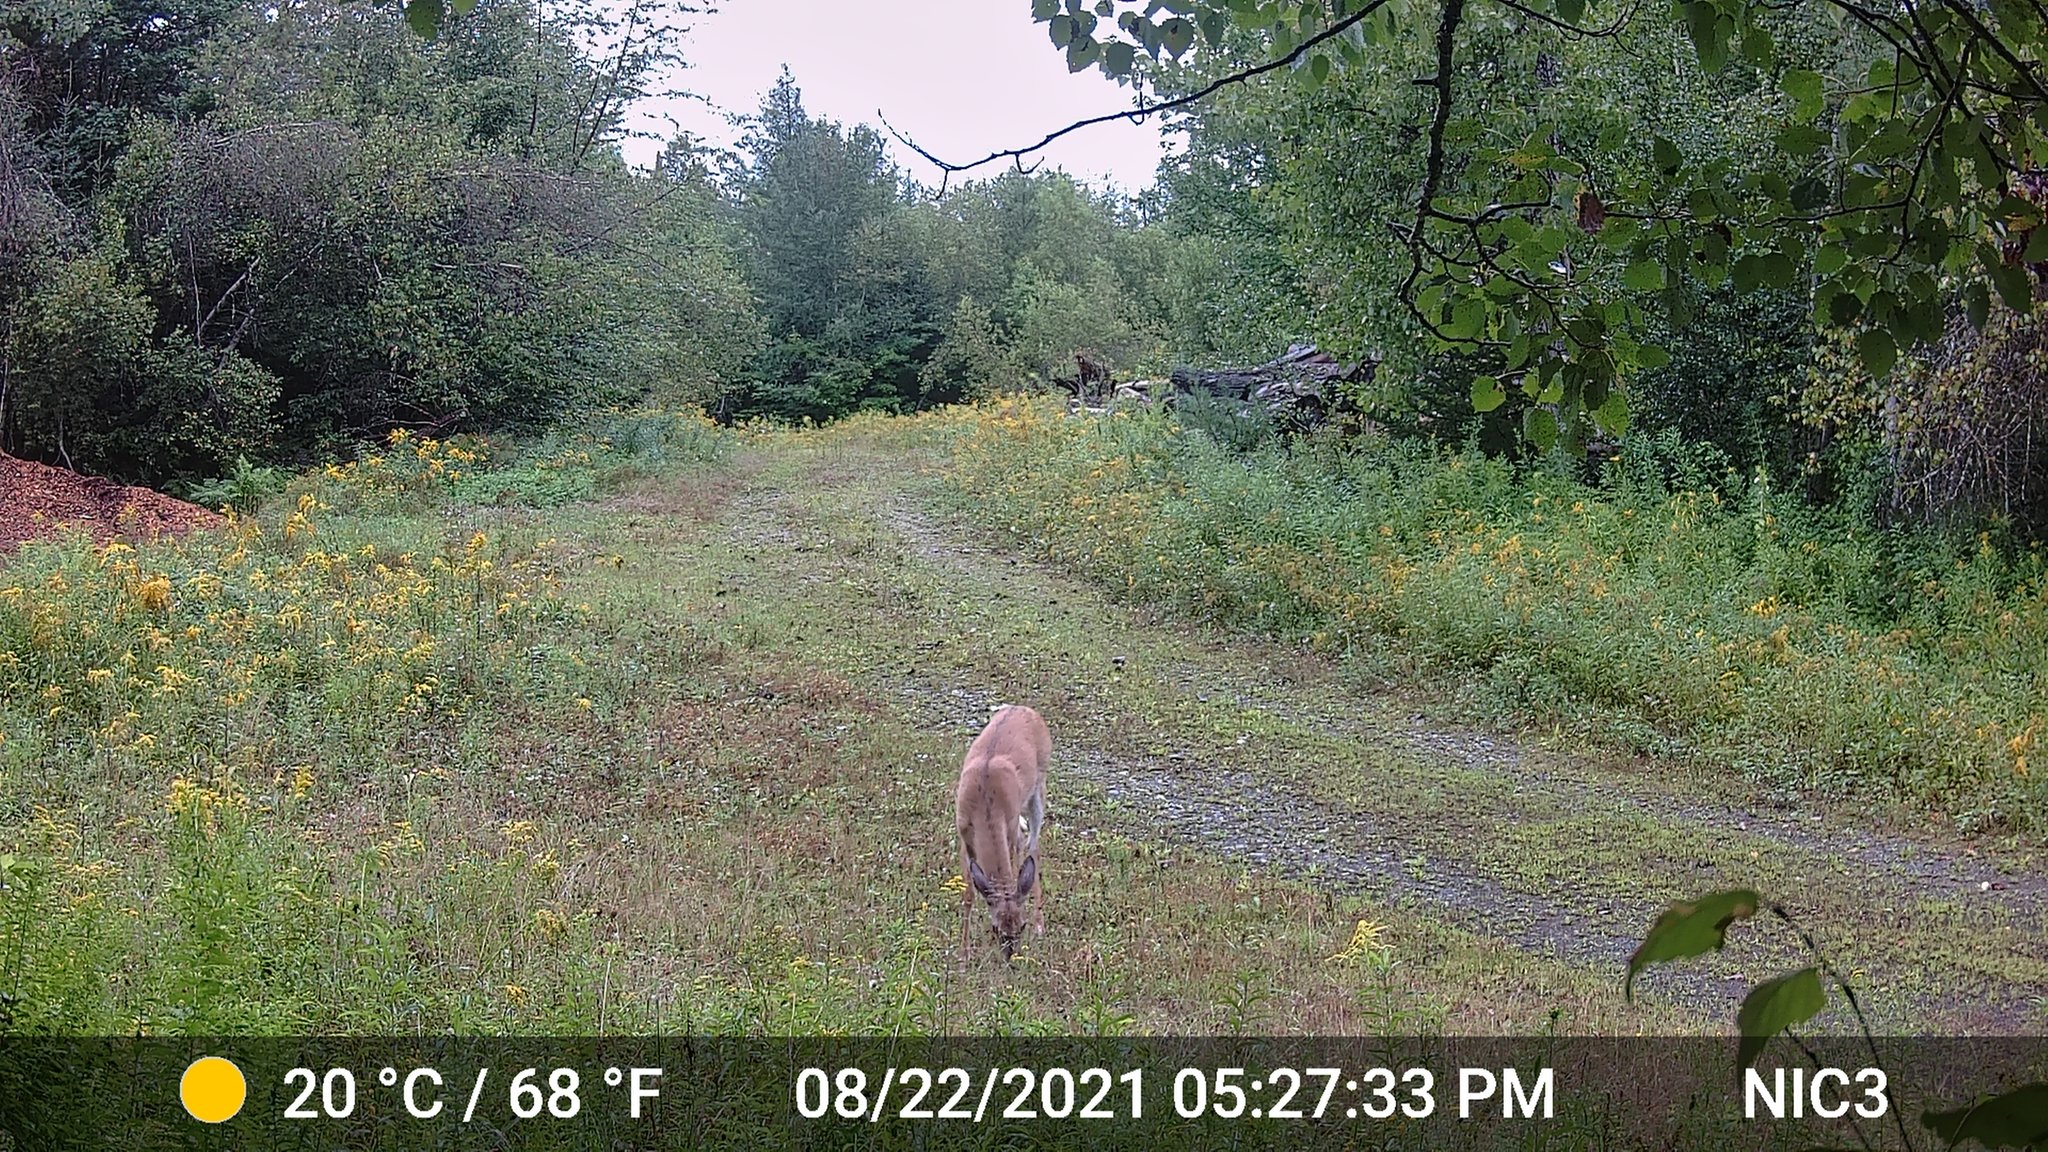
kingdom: Animalia
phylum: Chordata
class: Mammalia
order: Artiodactyla
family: Cervidae
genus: Odocoileus
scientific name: Odocoileus virginianus
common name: White-tailed deer
